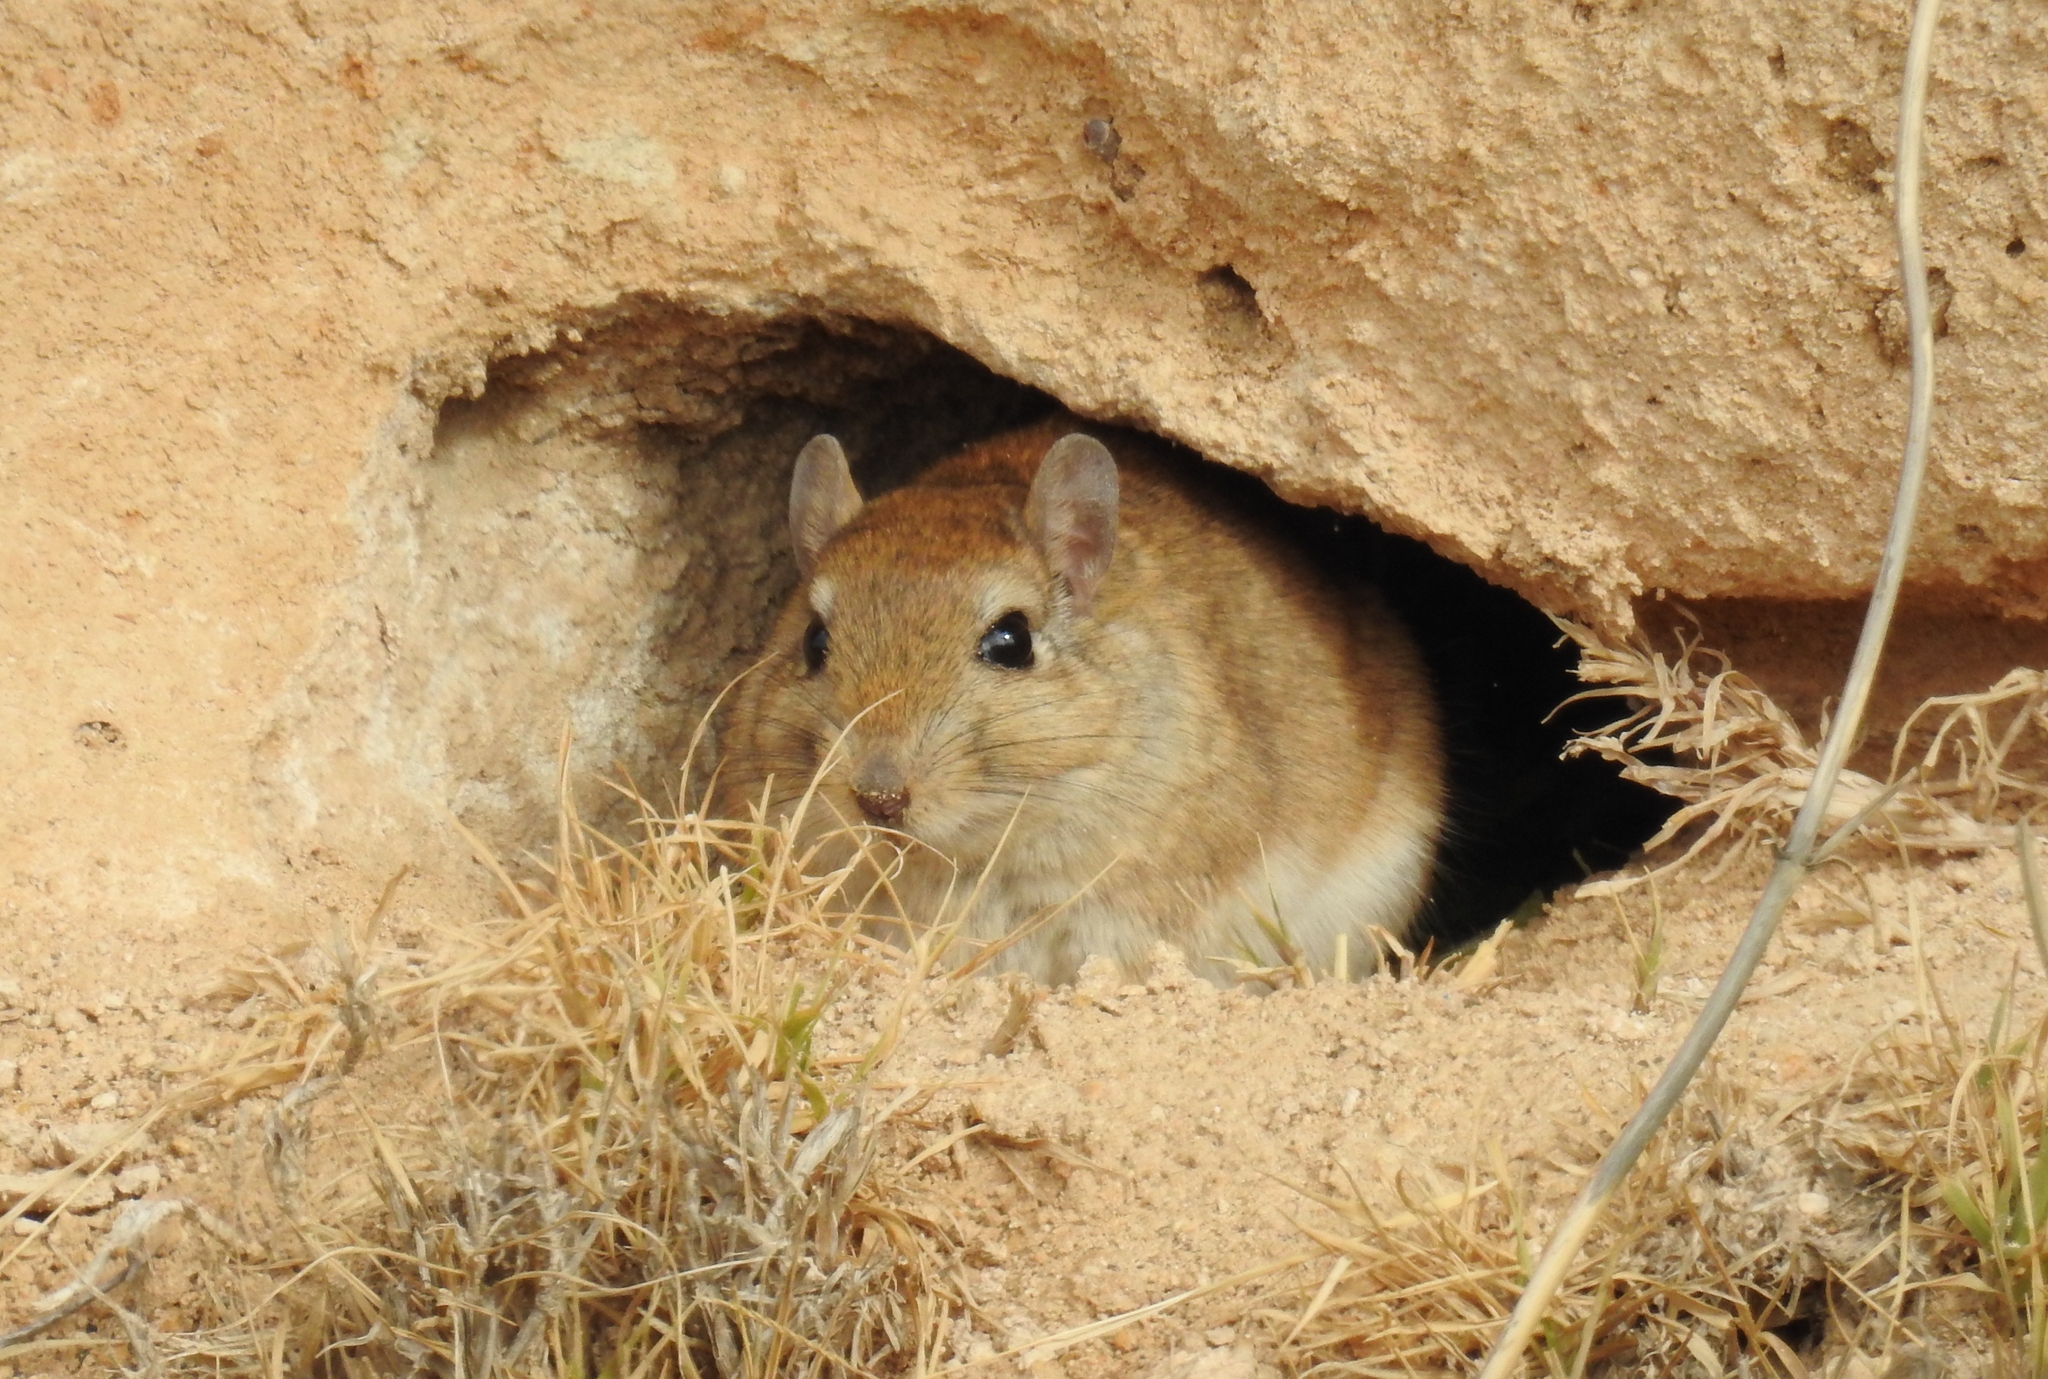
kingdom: Animalia
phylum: Chordata
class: Mammalia
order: Rodentia
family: Muridae
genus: Meriones
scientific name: Meriones shawi
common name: Shaw's jird
